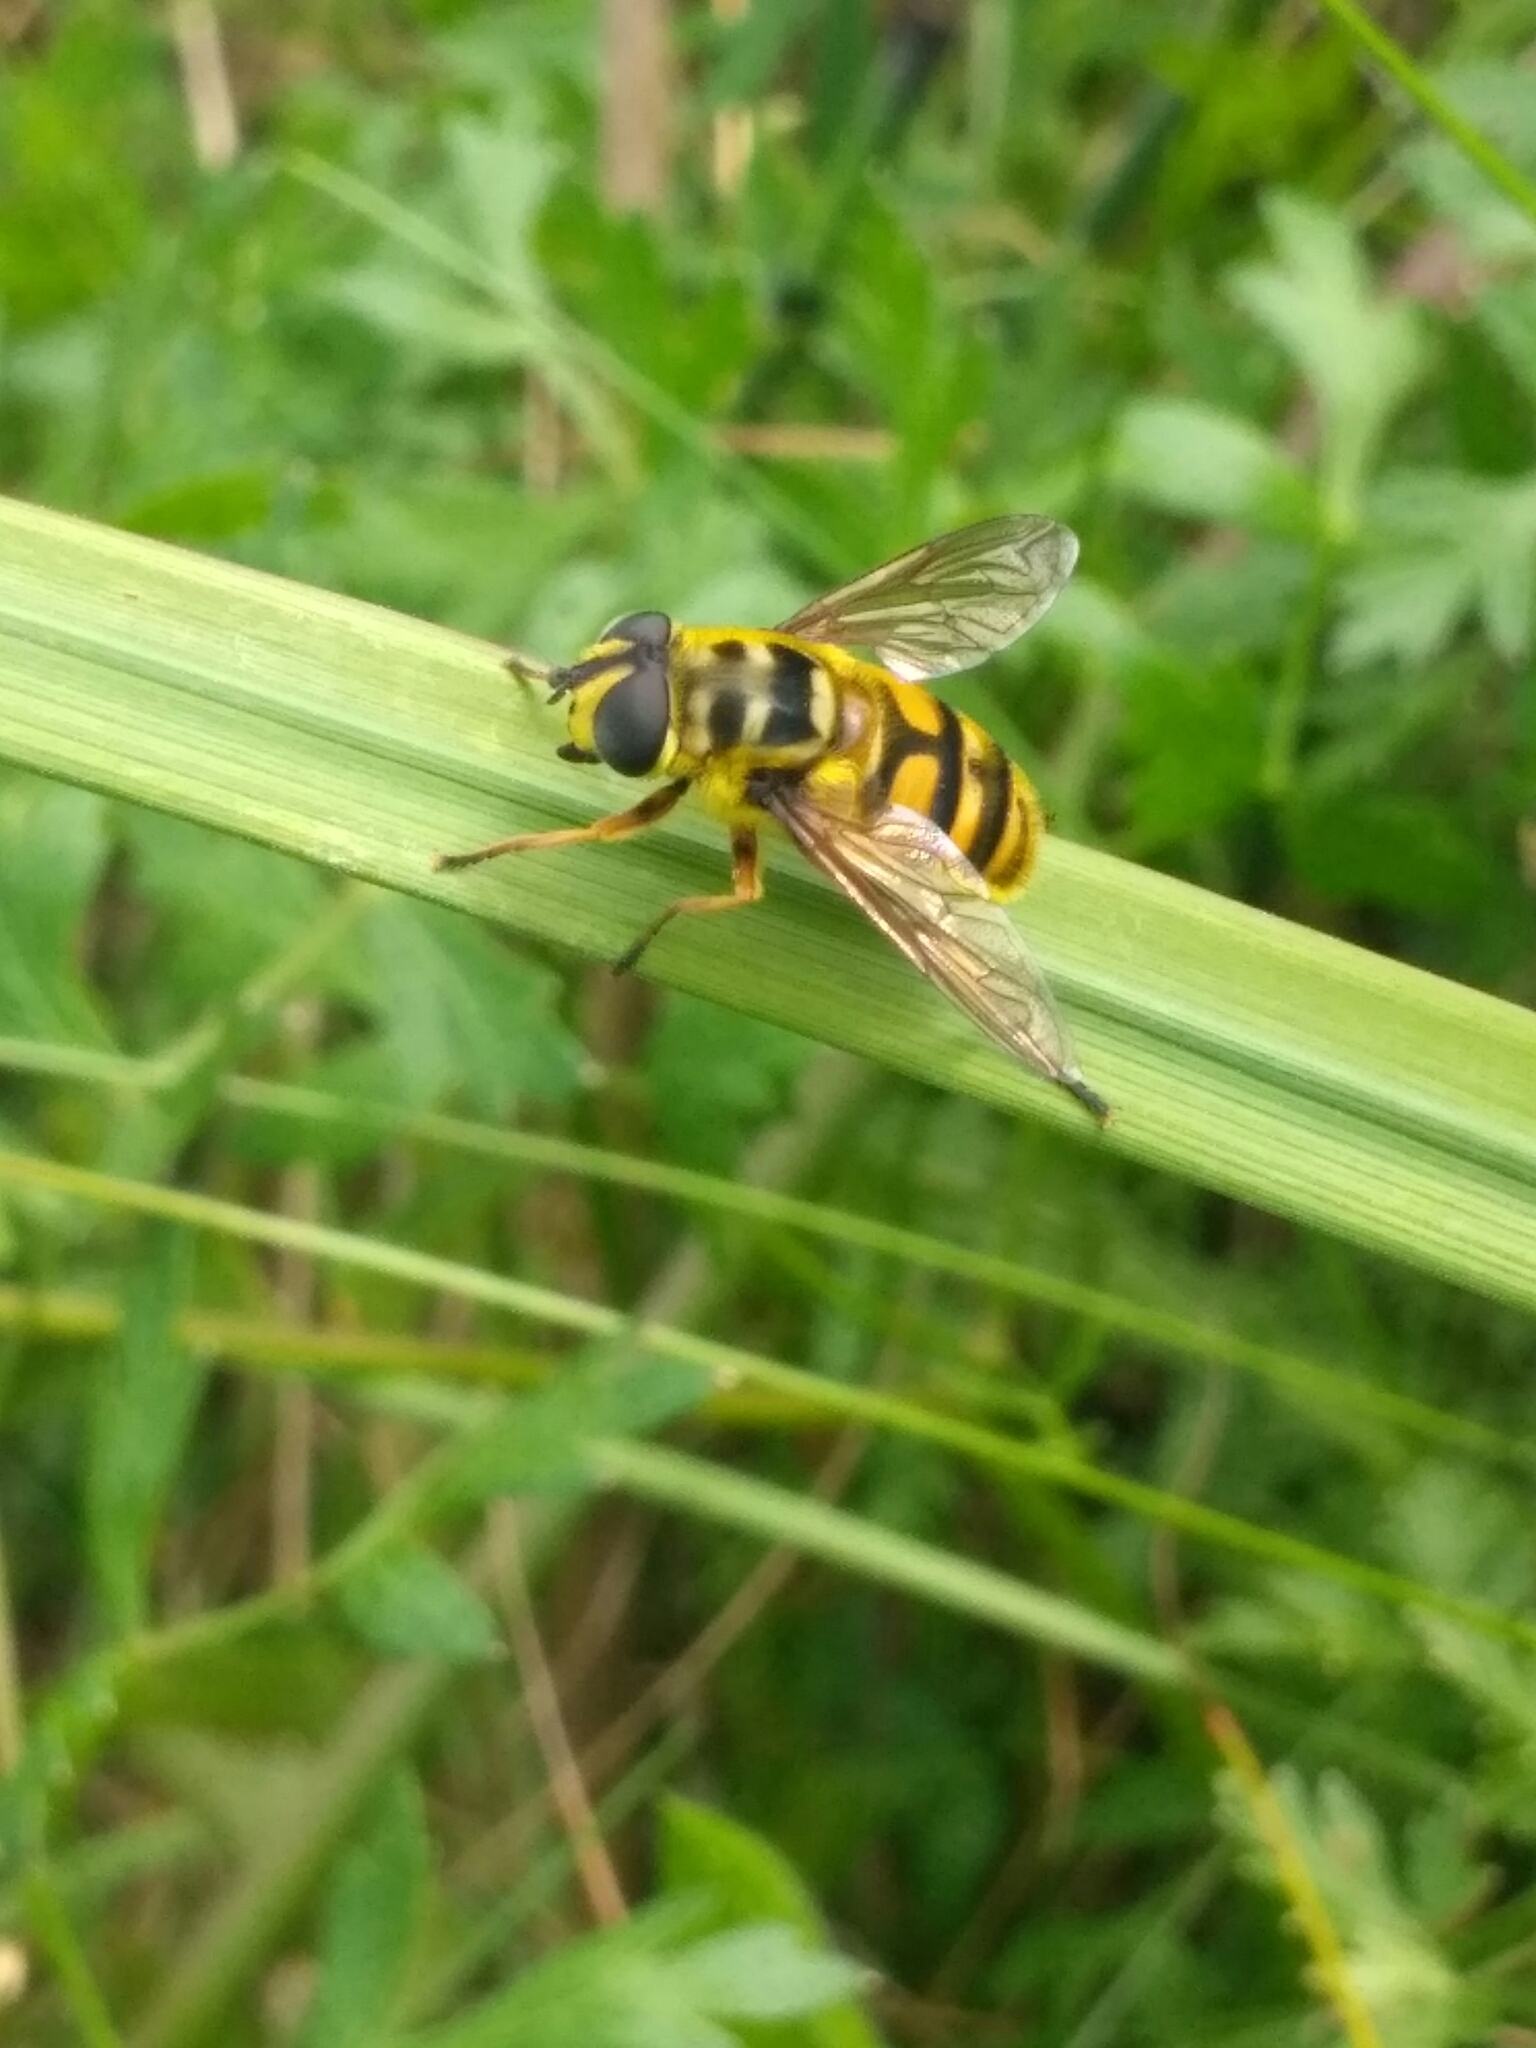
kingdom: Animalia
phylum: Arthropoda
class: Insecta
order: Diptera
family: Syrphidae
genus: Myathropa
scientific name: Myathropa florea
